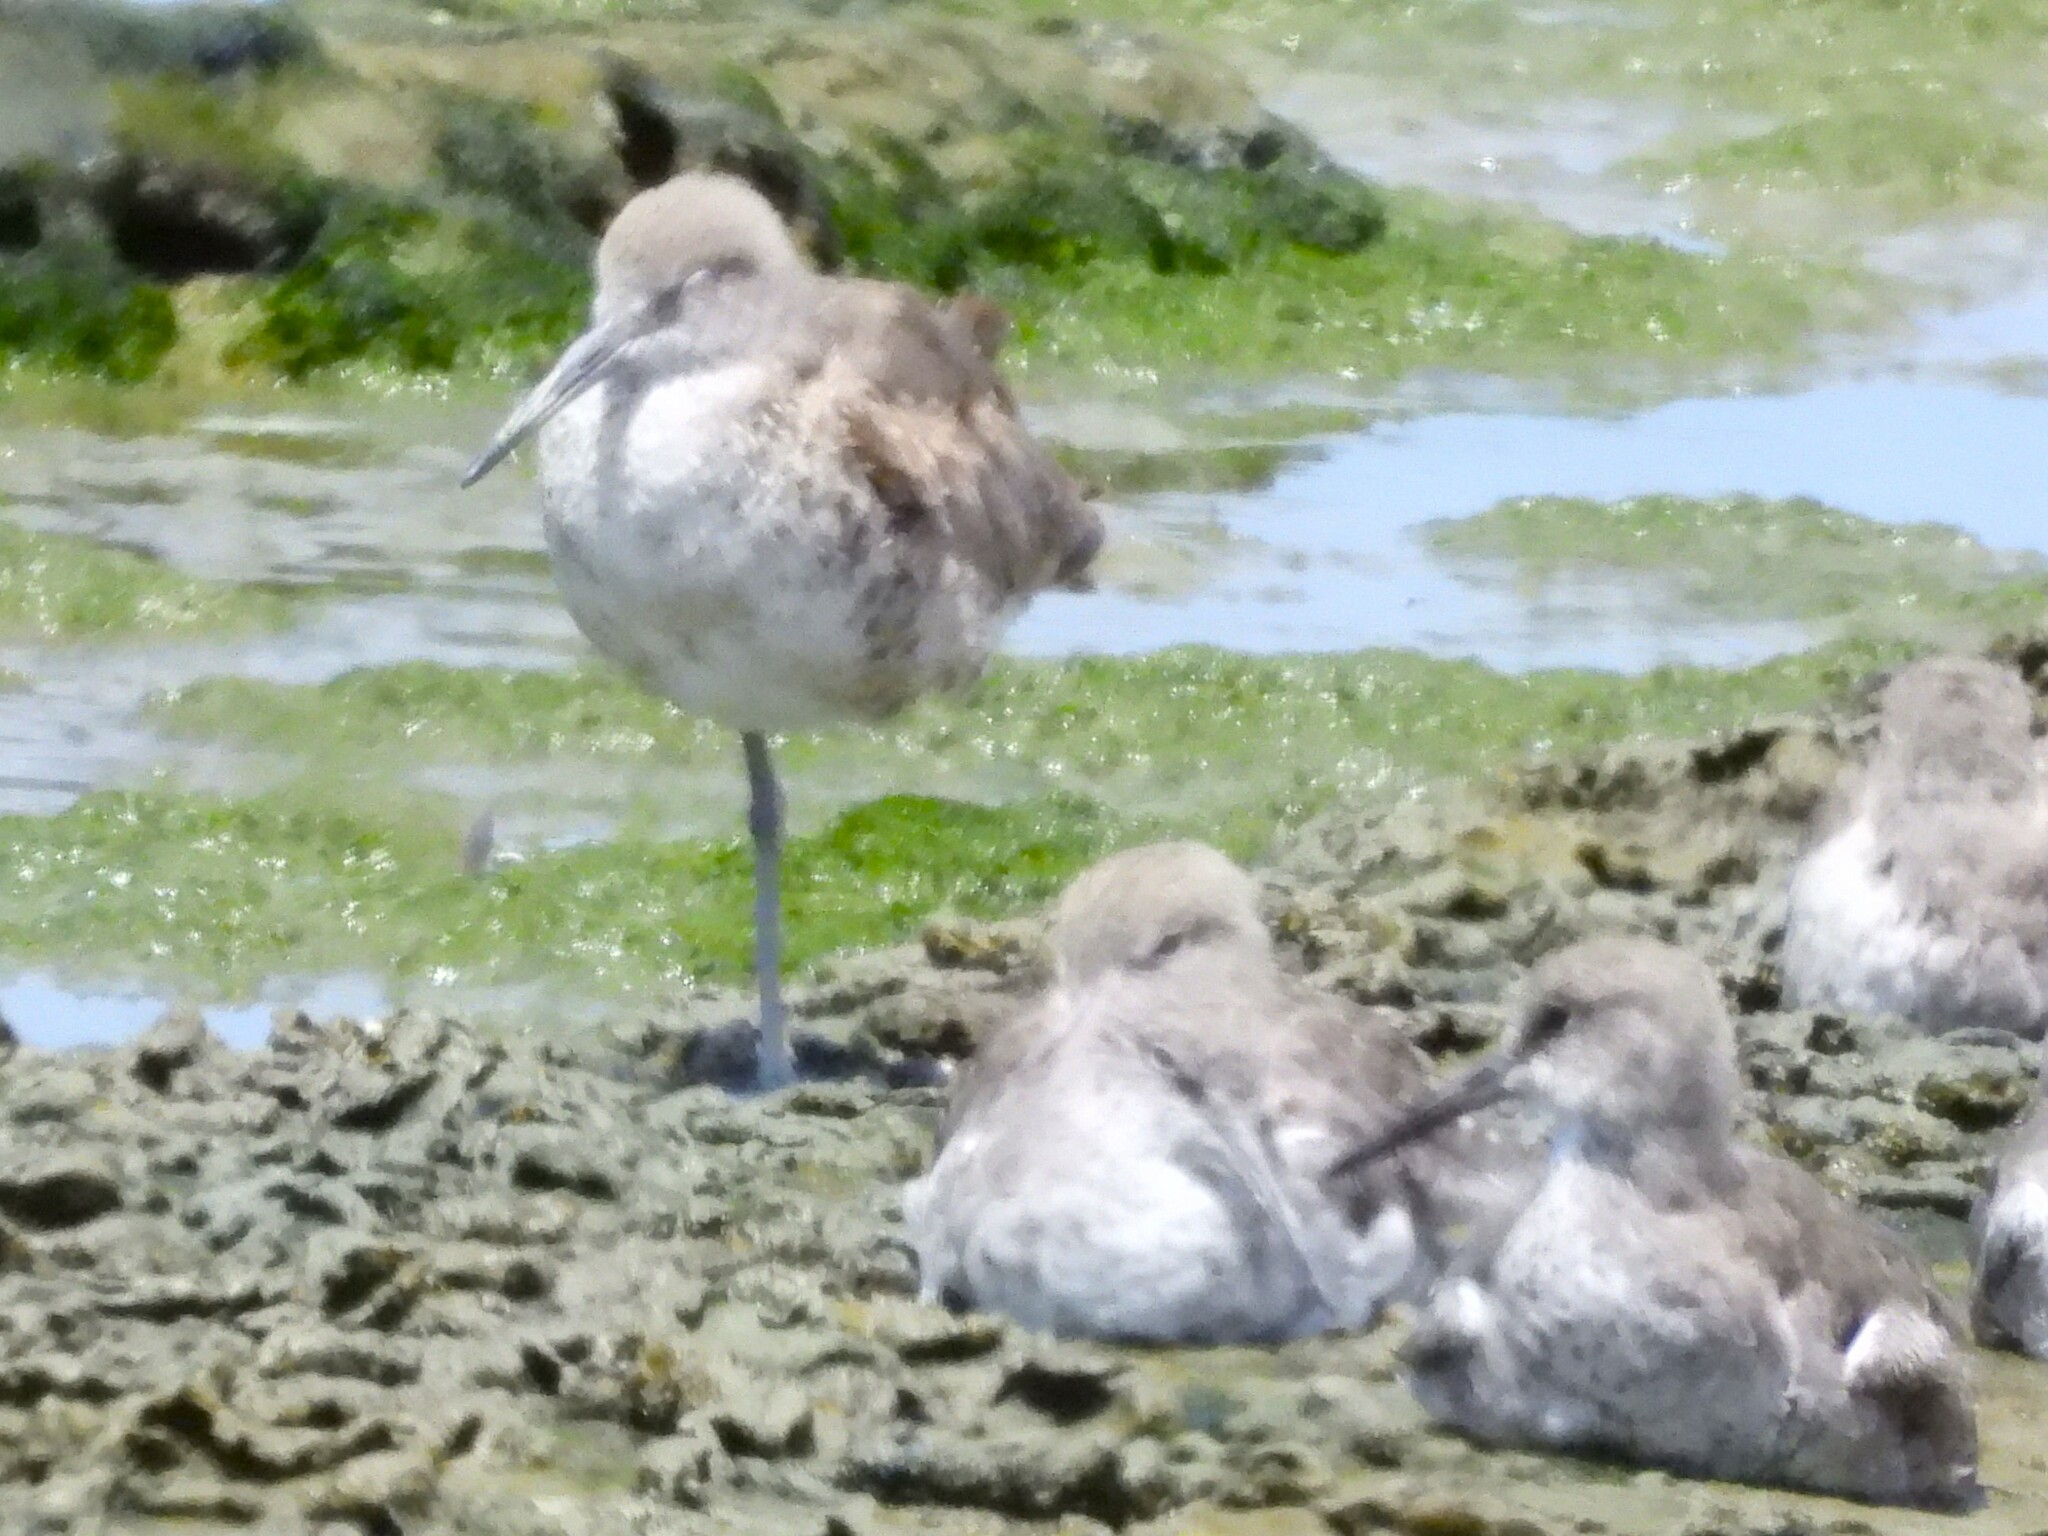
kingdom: Animalia
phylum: Chordata
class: Aves
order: Charadriiformes
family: Scolopacidae
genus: Tringa
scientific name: Tringa semipalmata
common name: Willet
